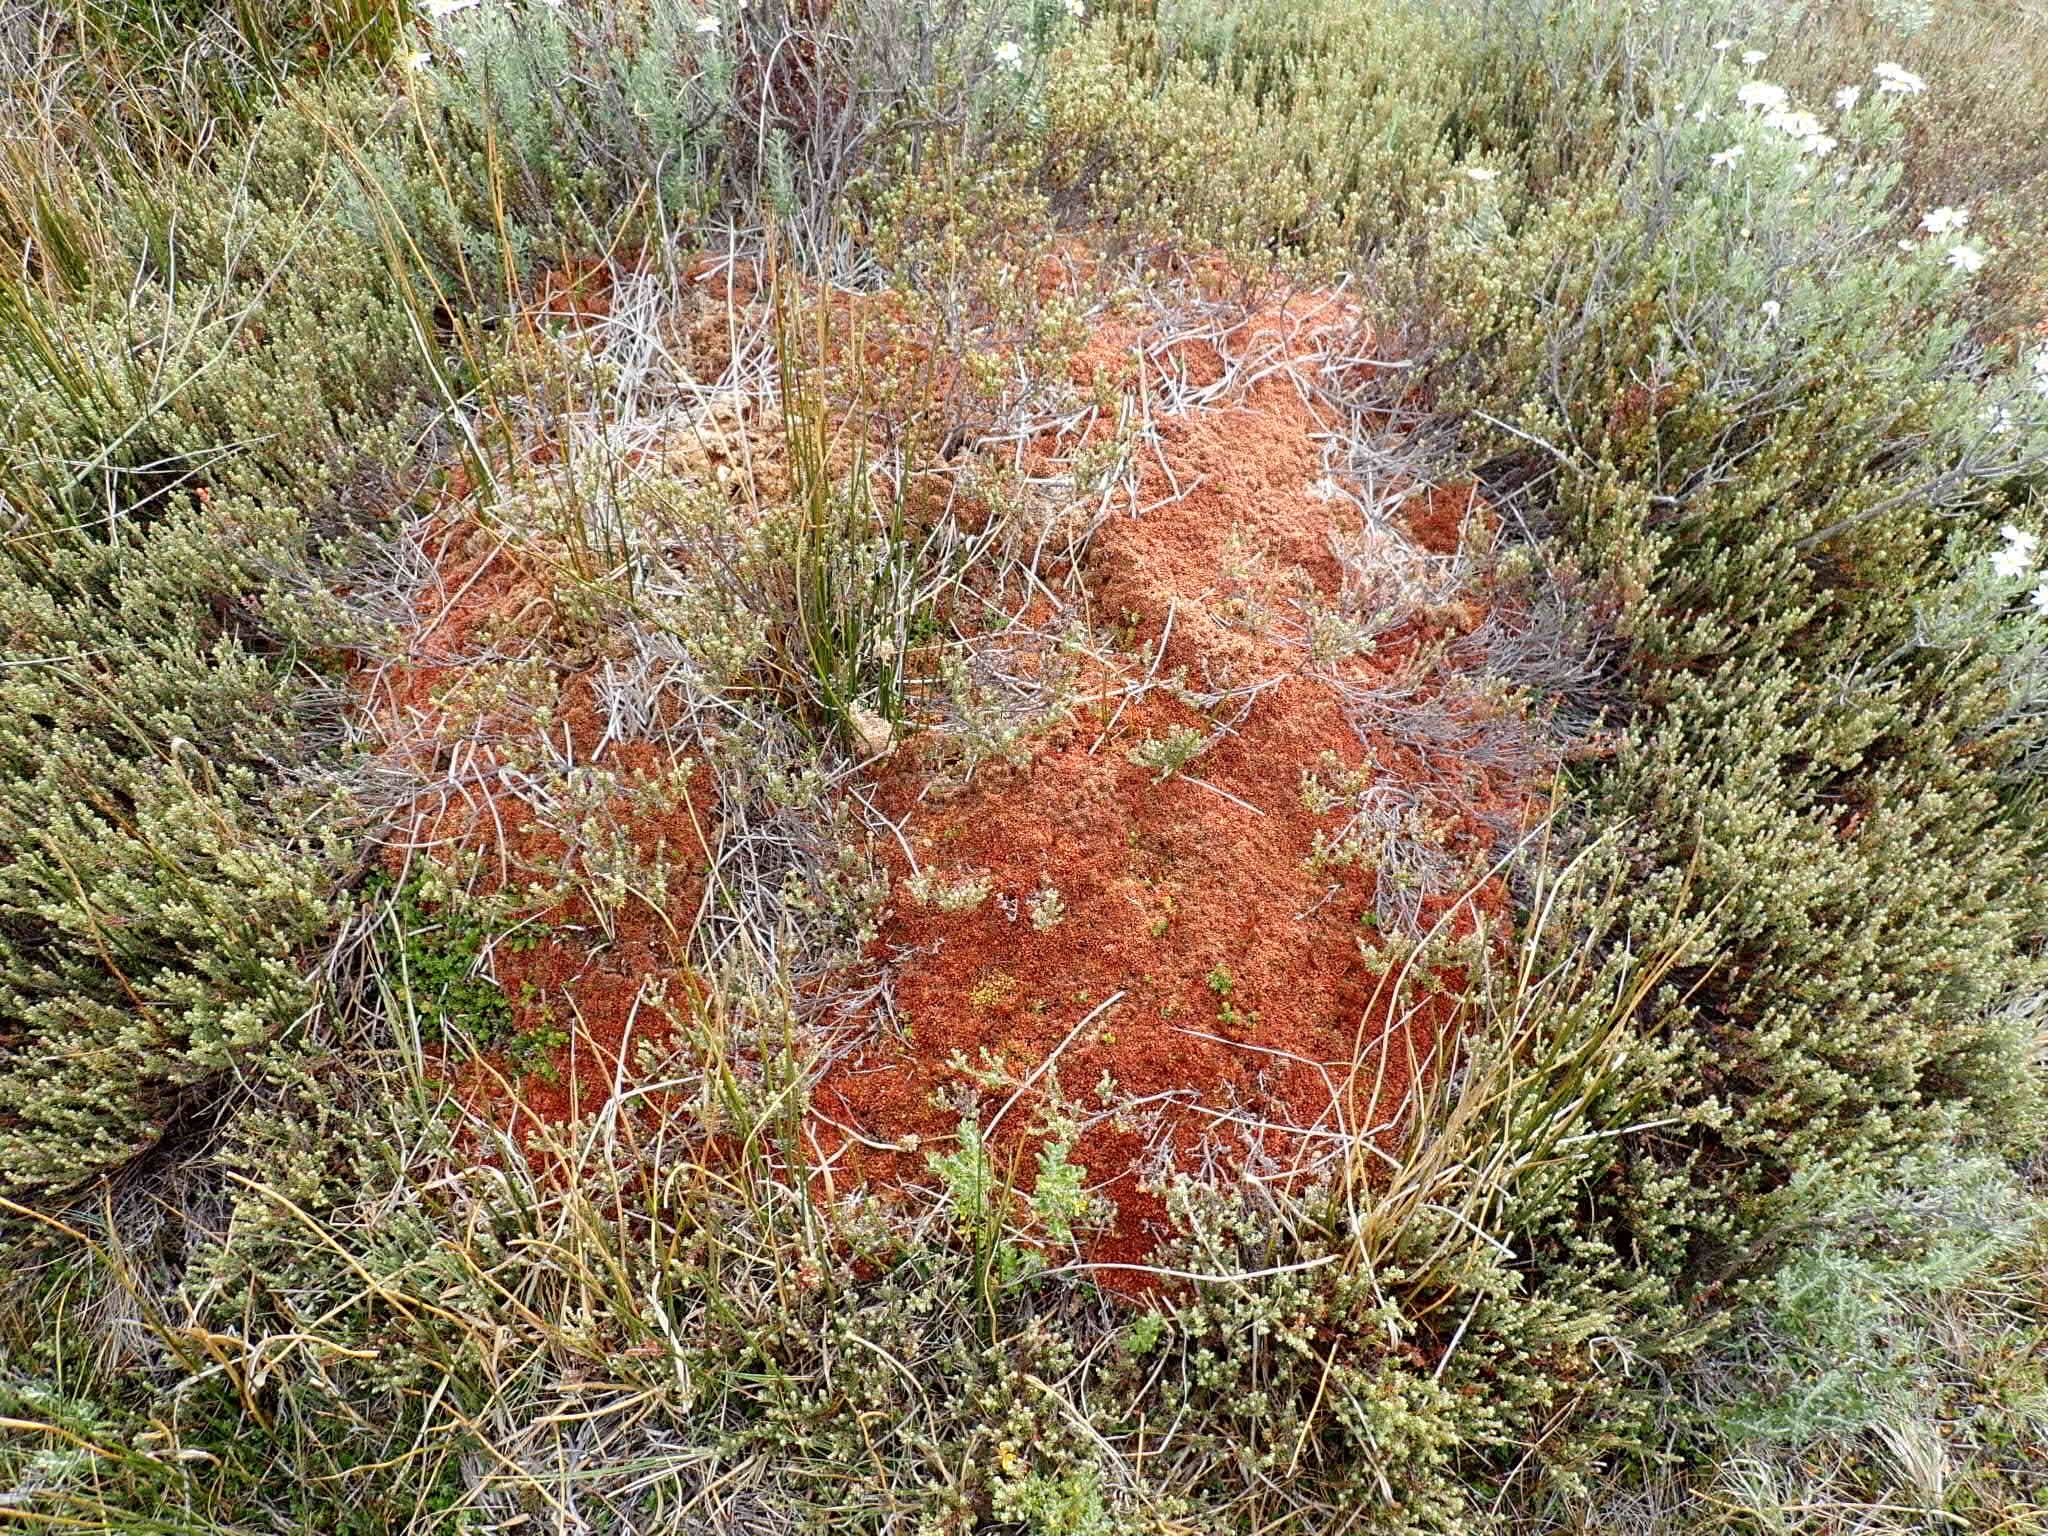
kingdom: Plantae
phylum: Bryophyta
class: Sphagnopsida
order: Sphagnales
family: Sphagnaceae
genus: Sphagnum
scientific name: Sphagnum magellanicum
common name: Magellan's peat moss
